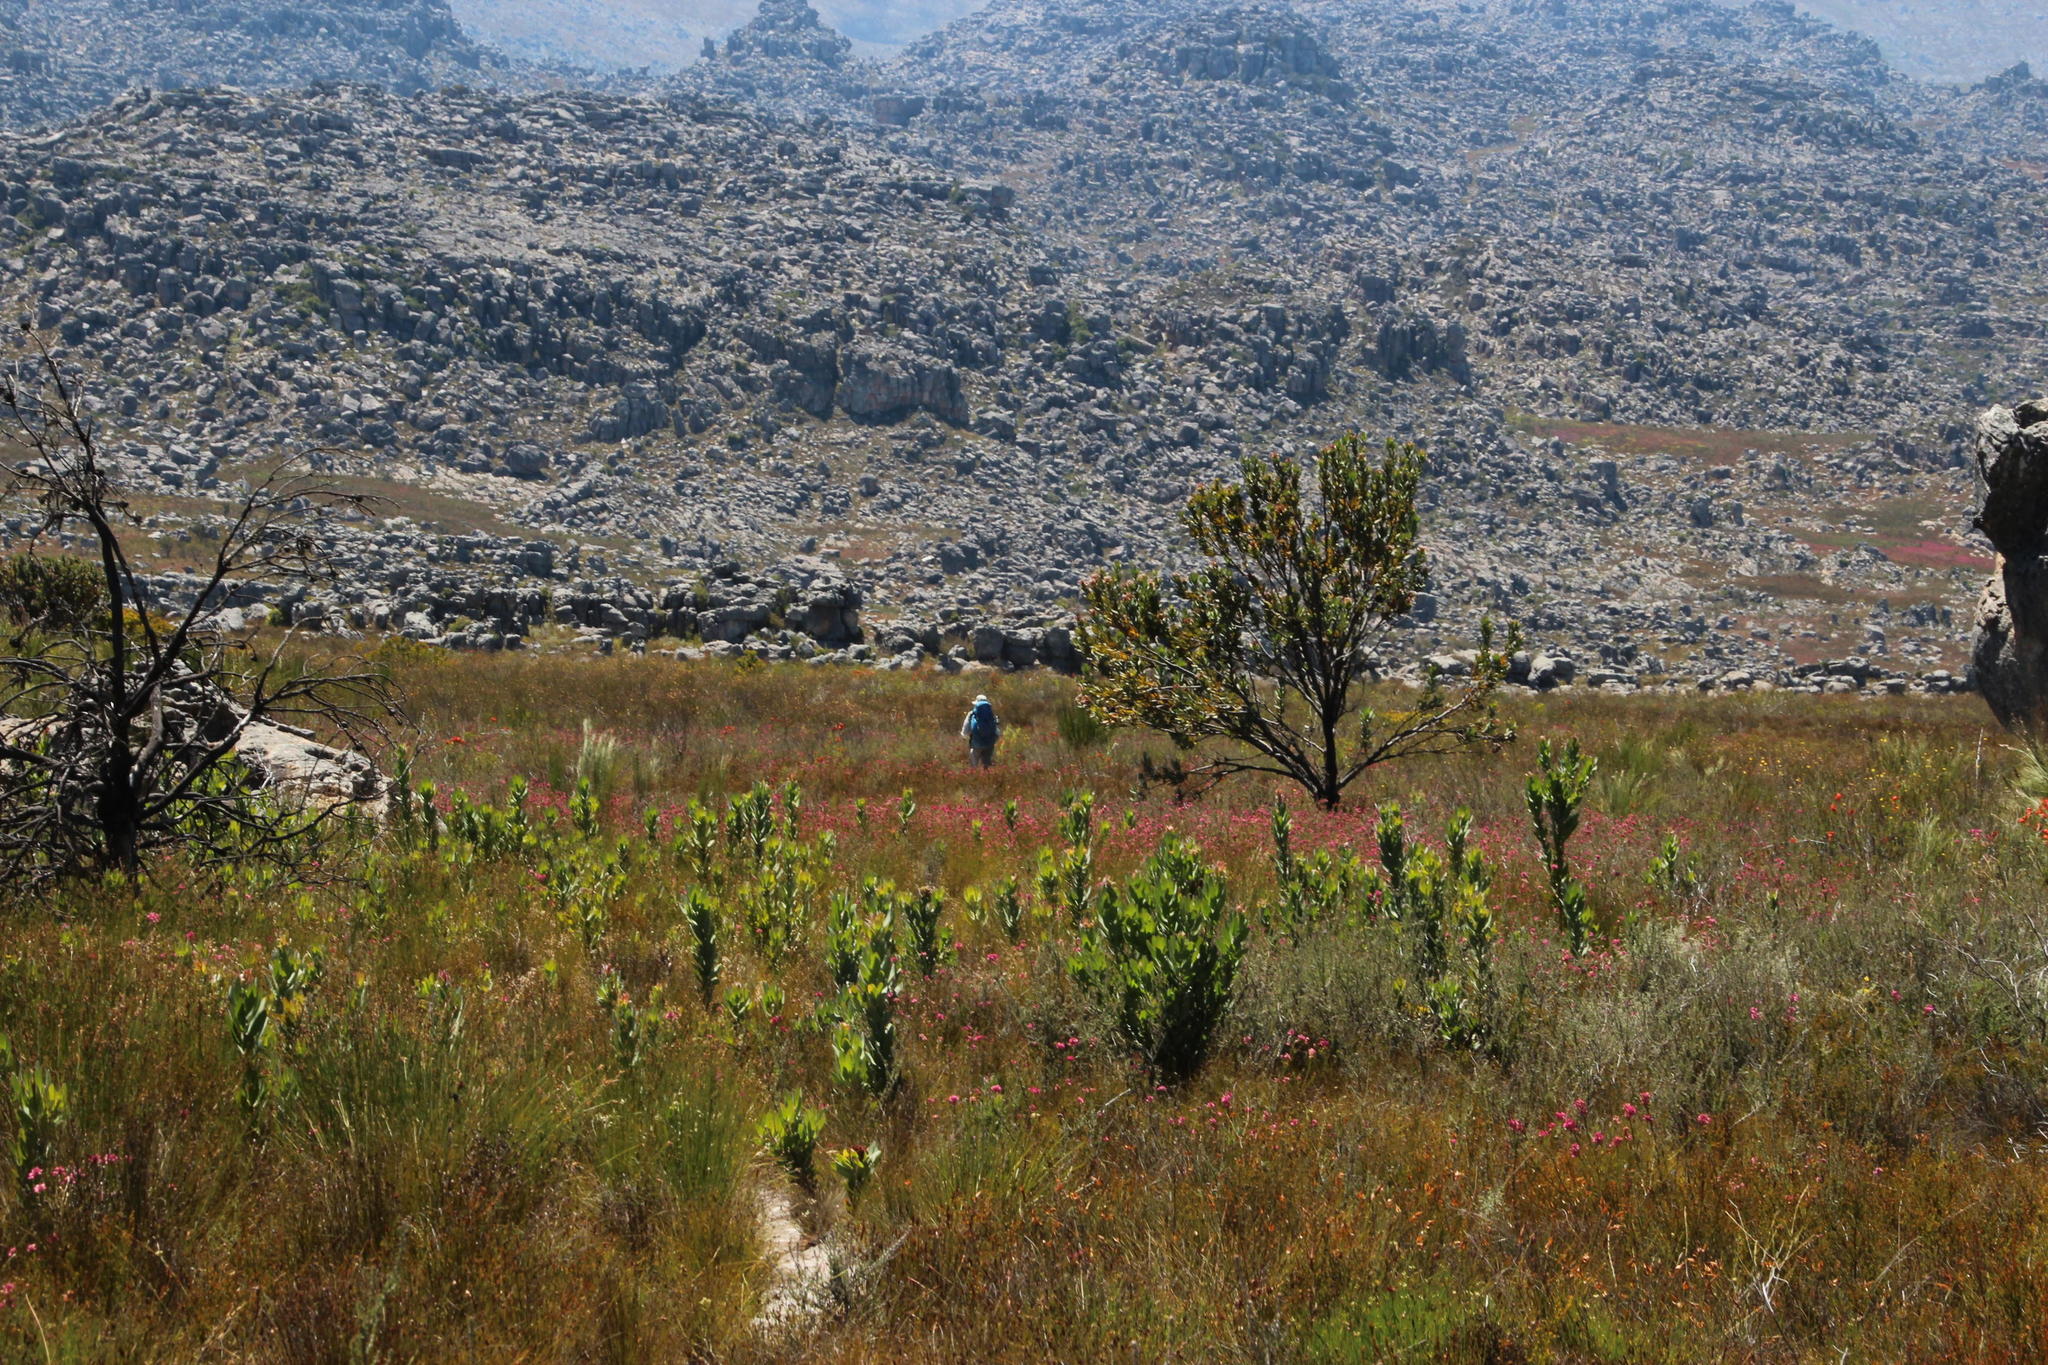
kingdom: Plantae
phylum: Tracheophyta
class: Magnoliopsida
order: Proteales
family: Proteaceae
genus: Protea
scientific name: Protea laurifolia
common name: Grey-leaf sugarbsh
